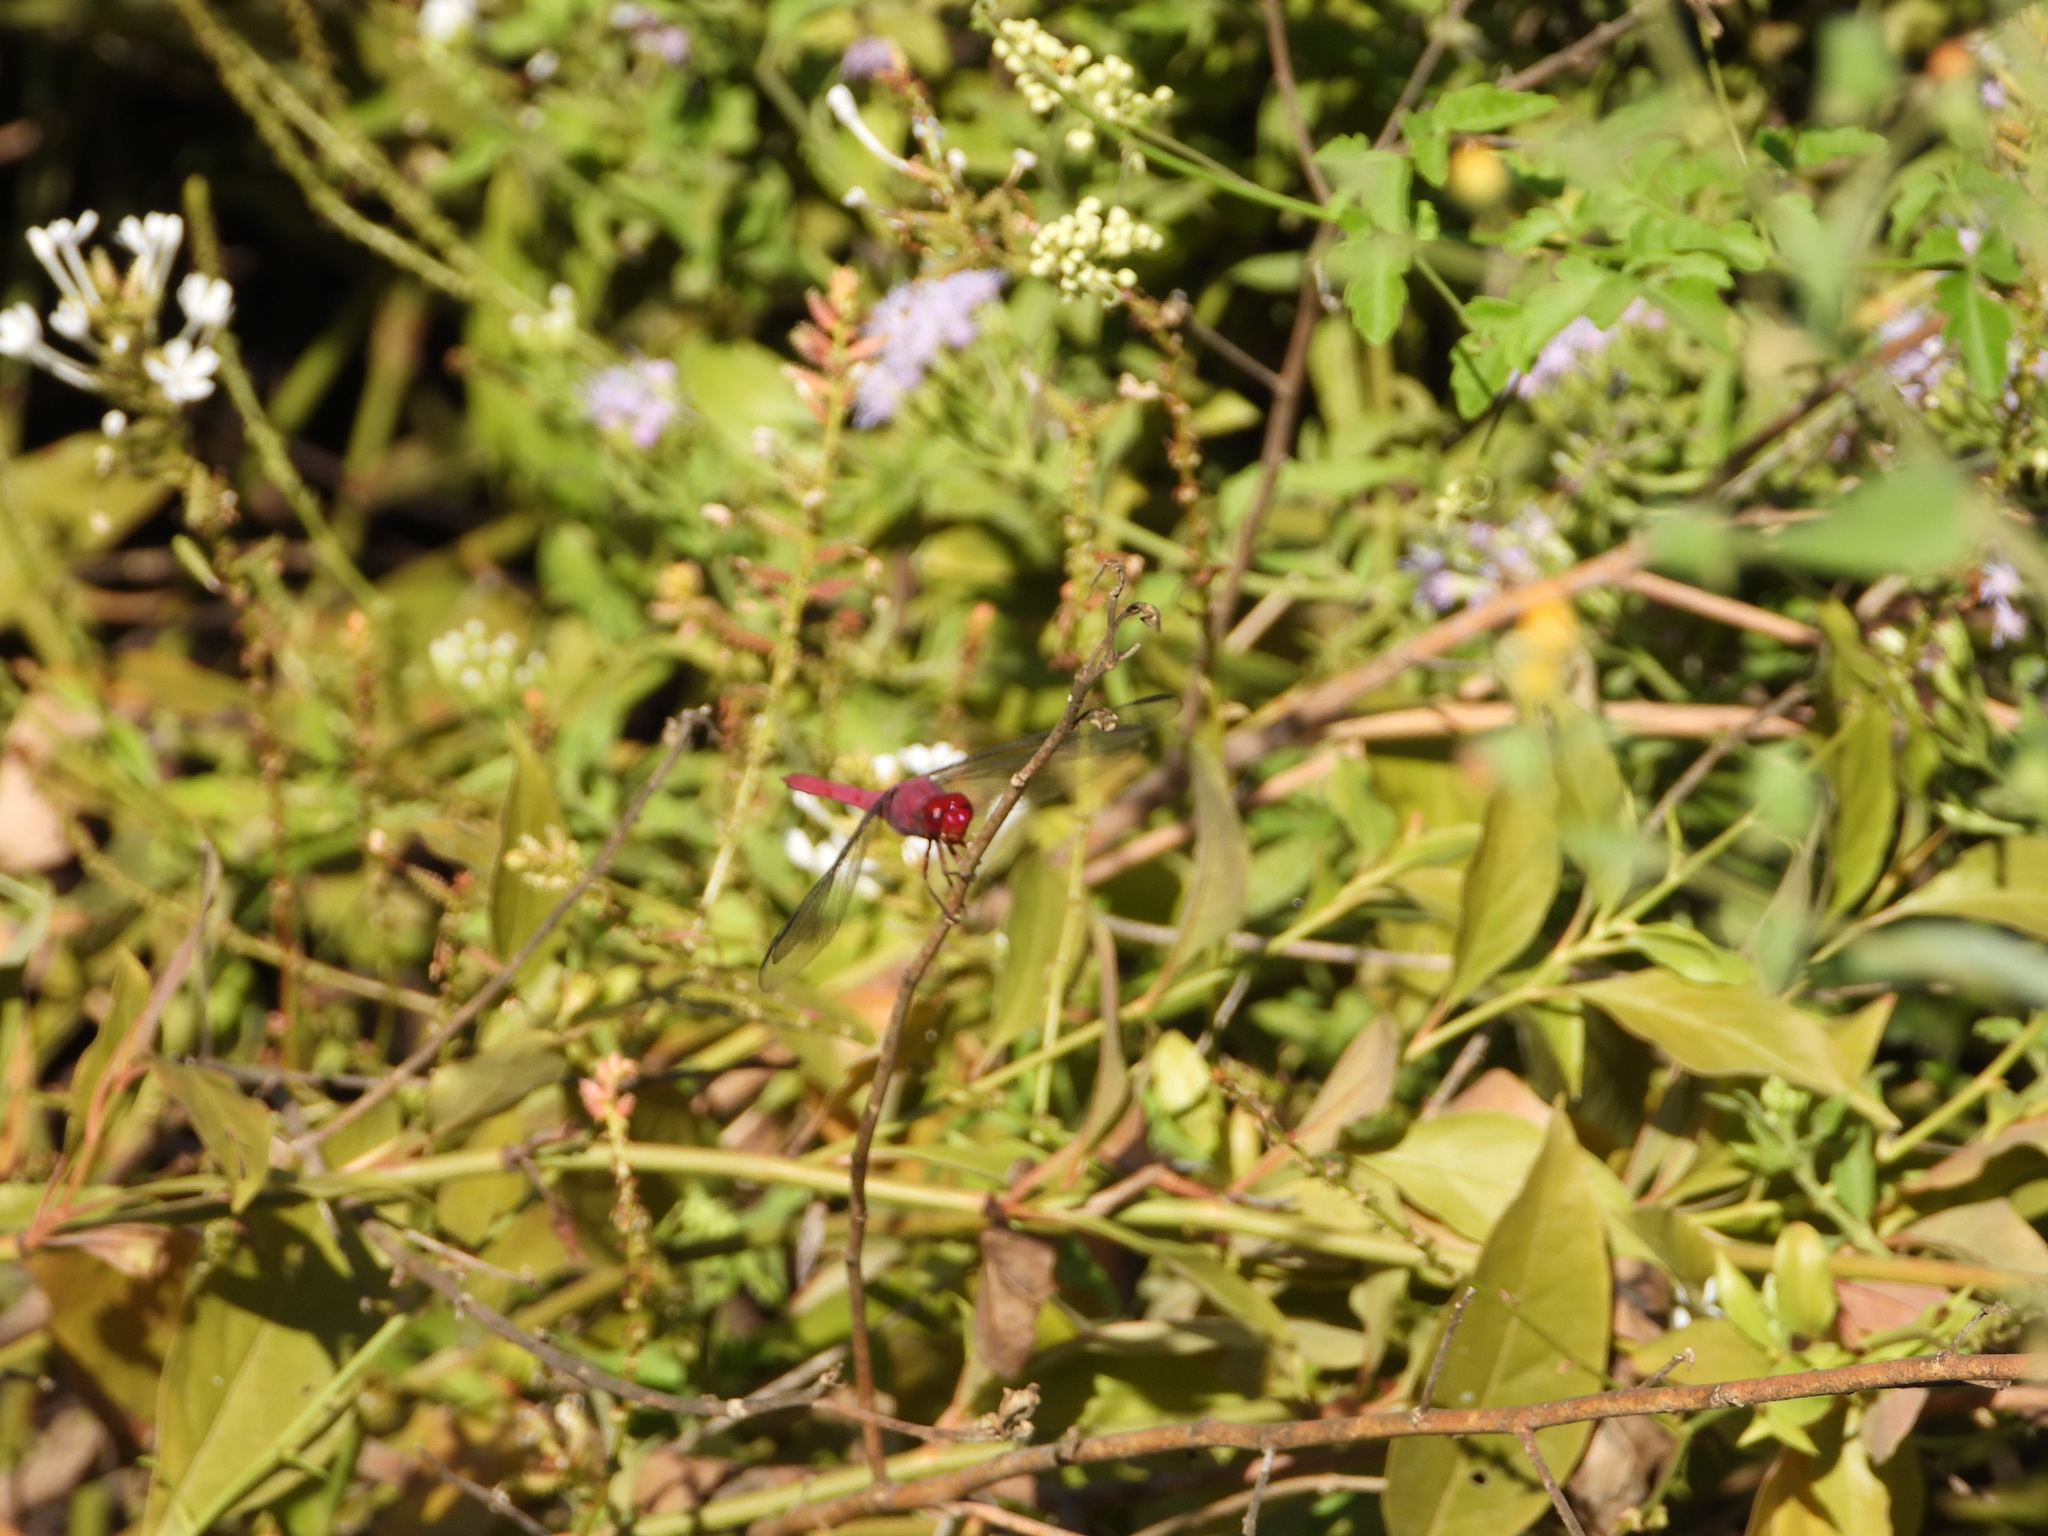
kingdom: Animalia
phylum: Arthropoda
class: Insecta
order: Odonata
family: Libellulidae
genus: Orthemis
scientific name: Orthemis discolor
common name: Carmine skimmer
